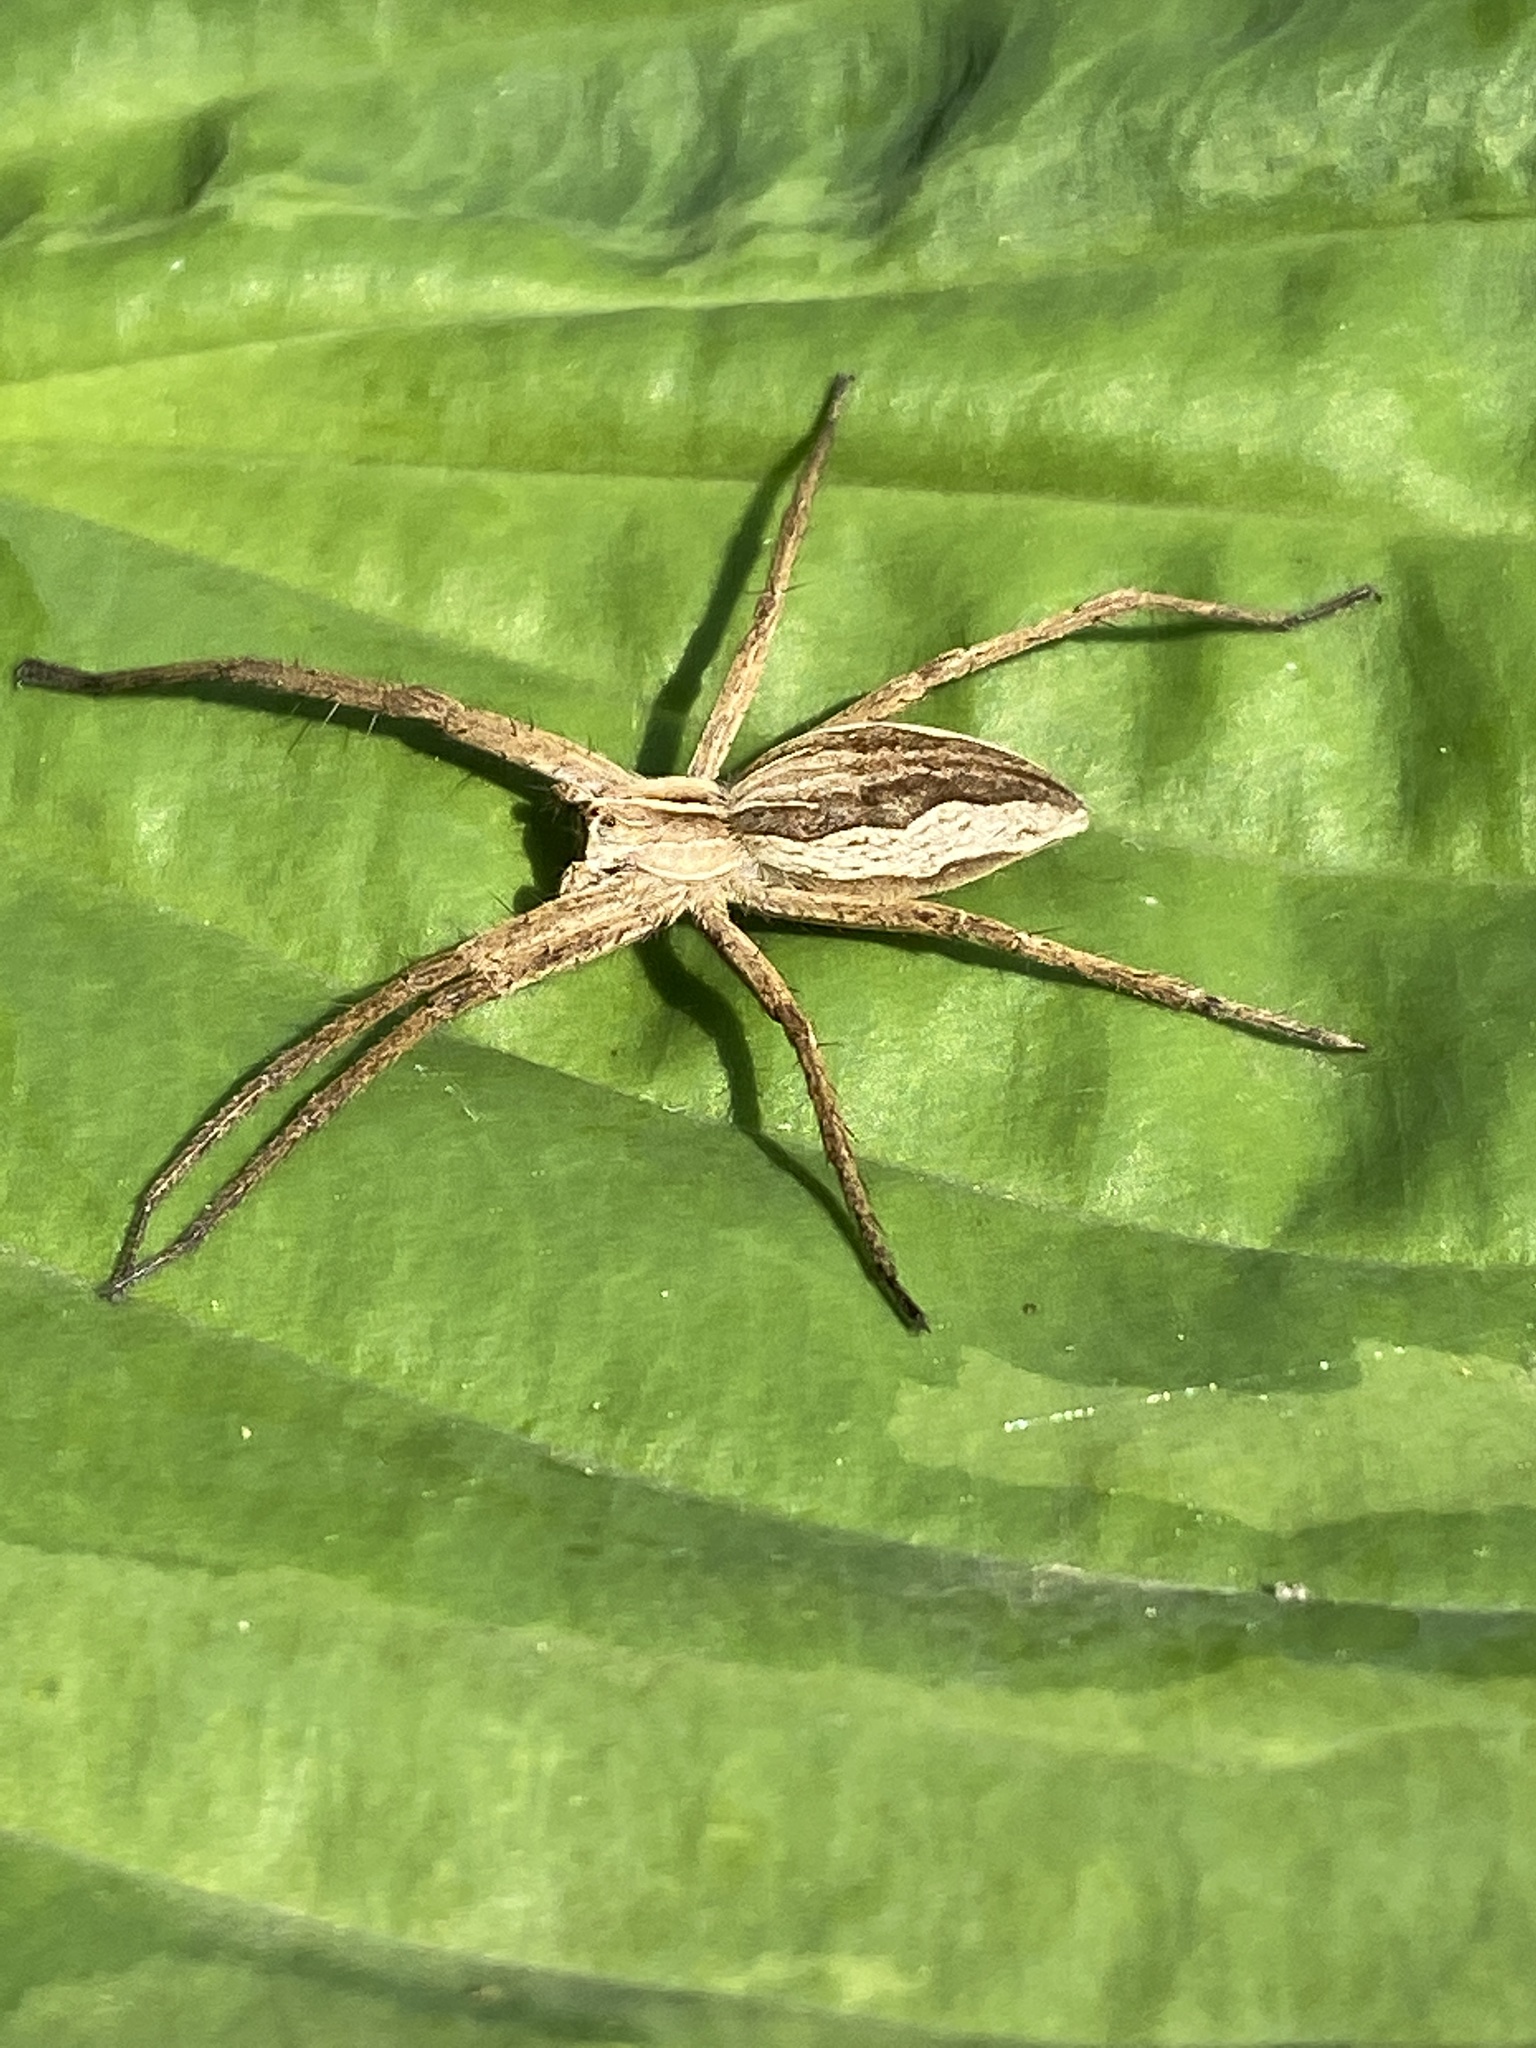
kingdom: Animalia
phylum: Arthropoda
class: Arachnida
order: Araneae
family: Pisauridae
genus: Pisaura
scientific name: Pisaura mirabilis
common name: Tent spider
